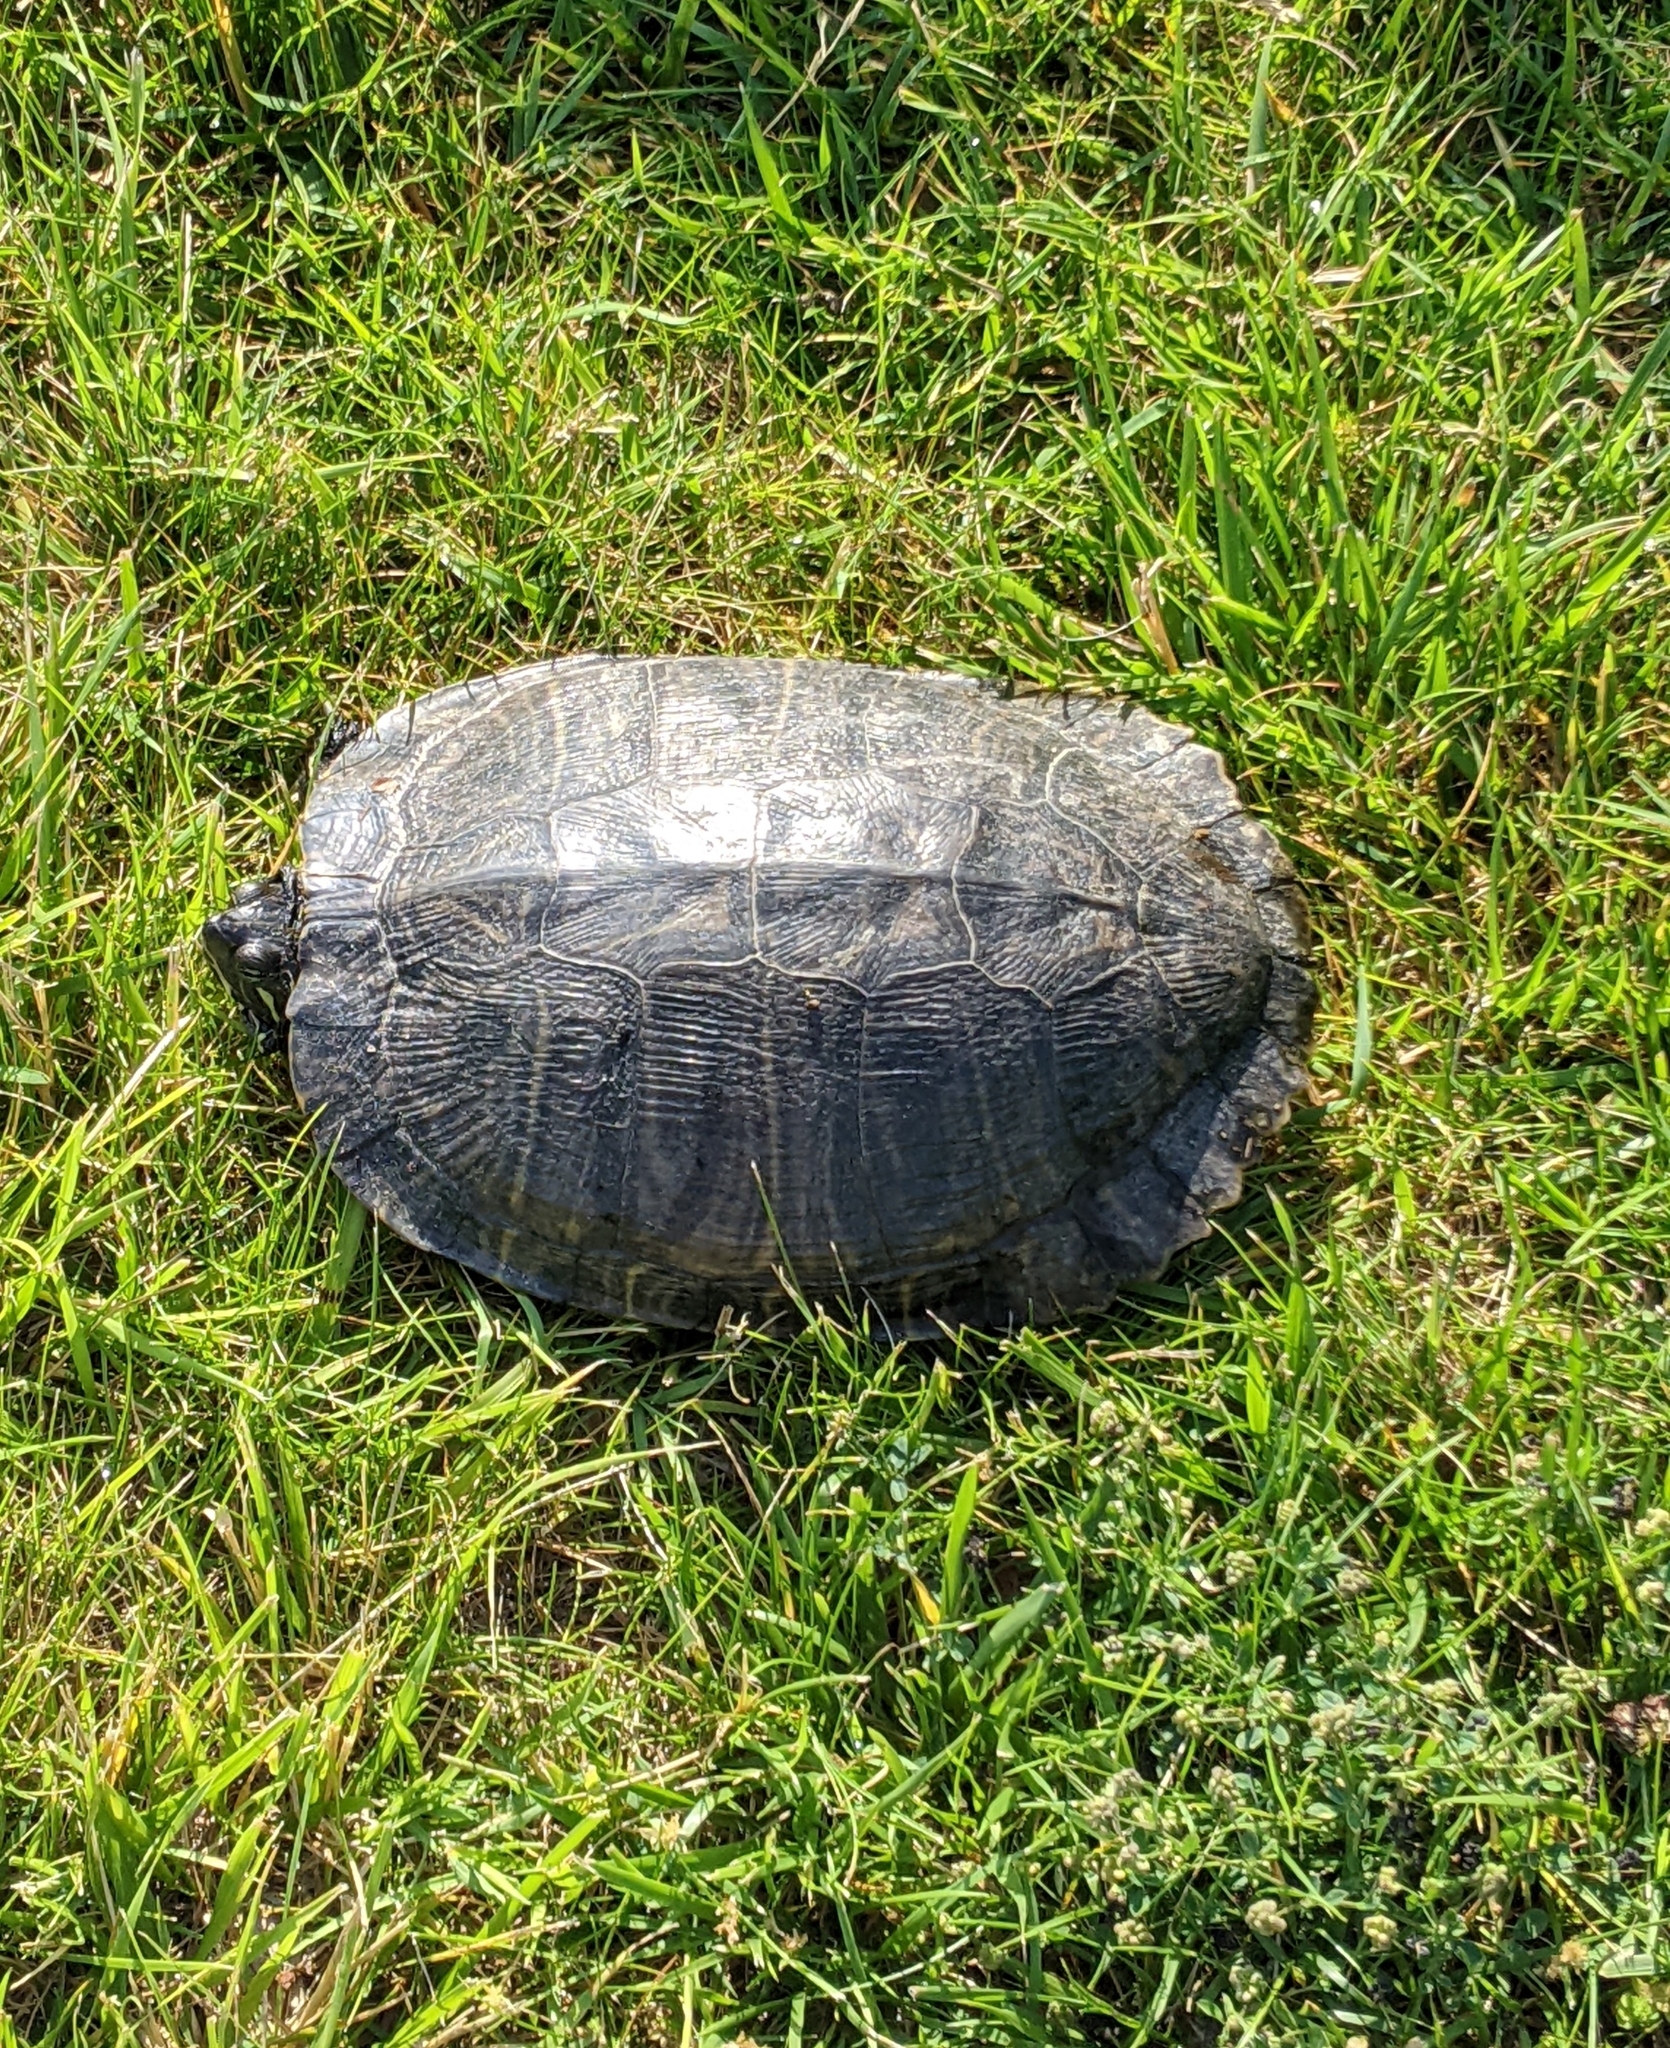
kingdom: Animalia
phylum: Chordata
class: Testudines
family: Emydidae
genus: Trachemys
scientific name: Trachemys scripta
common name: Slider
